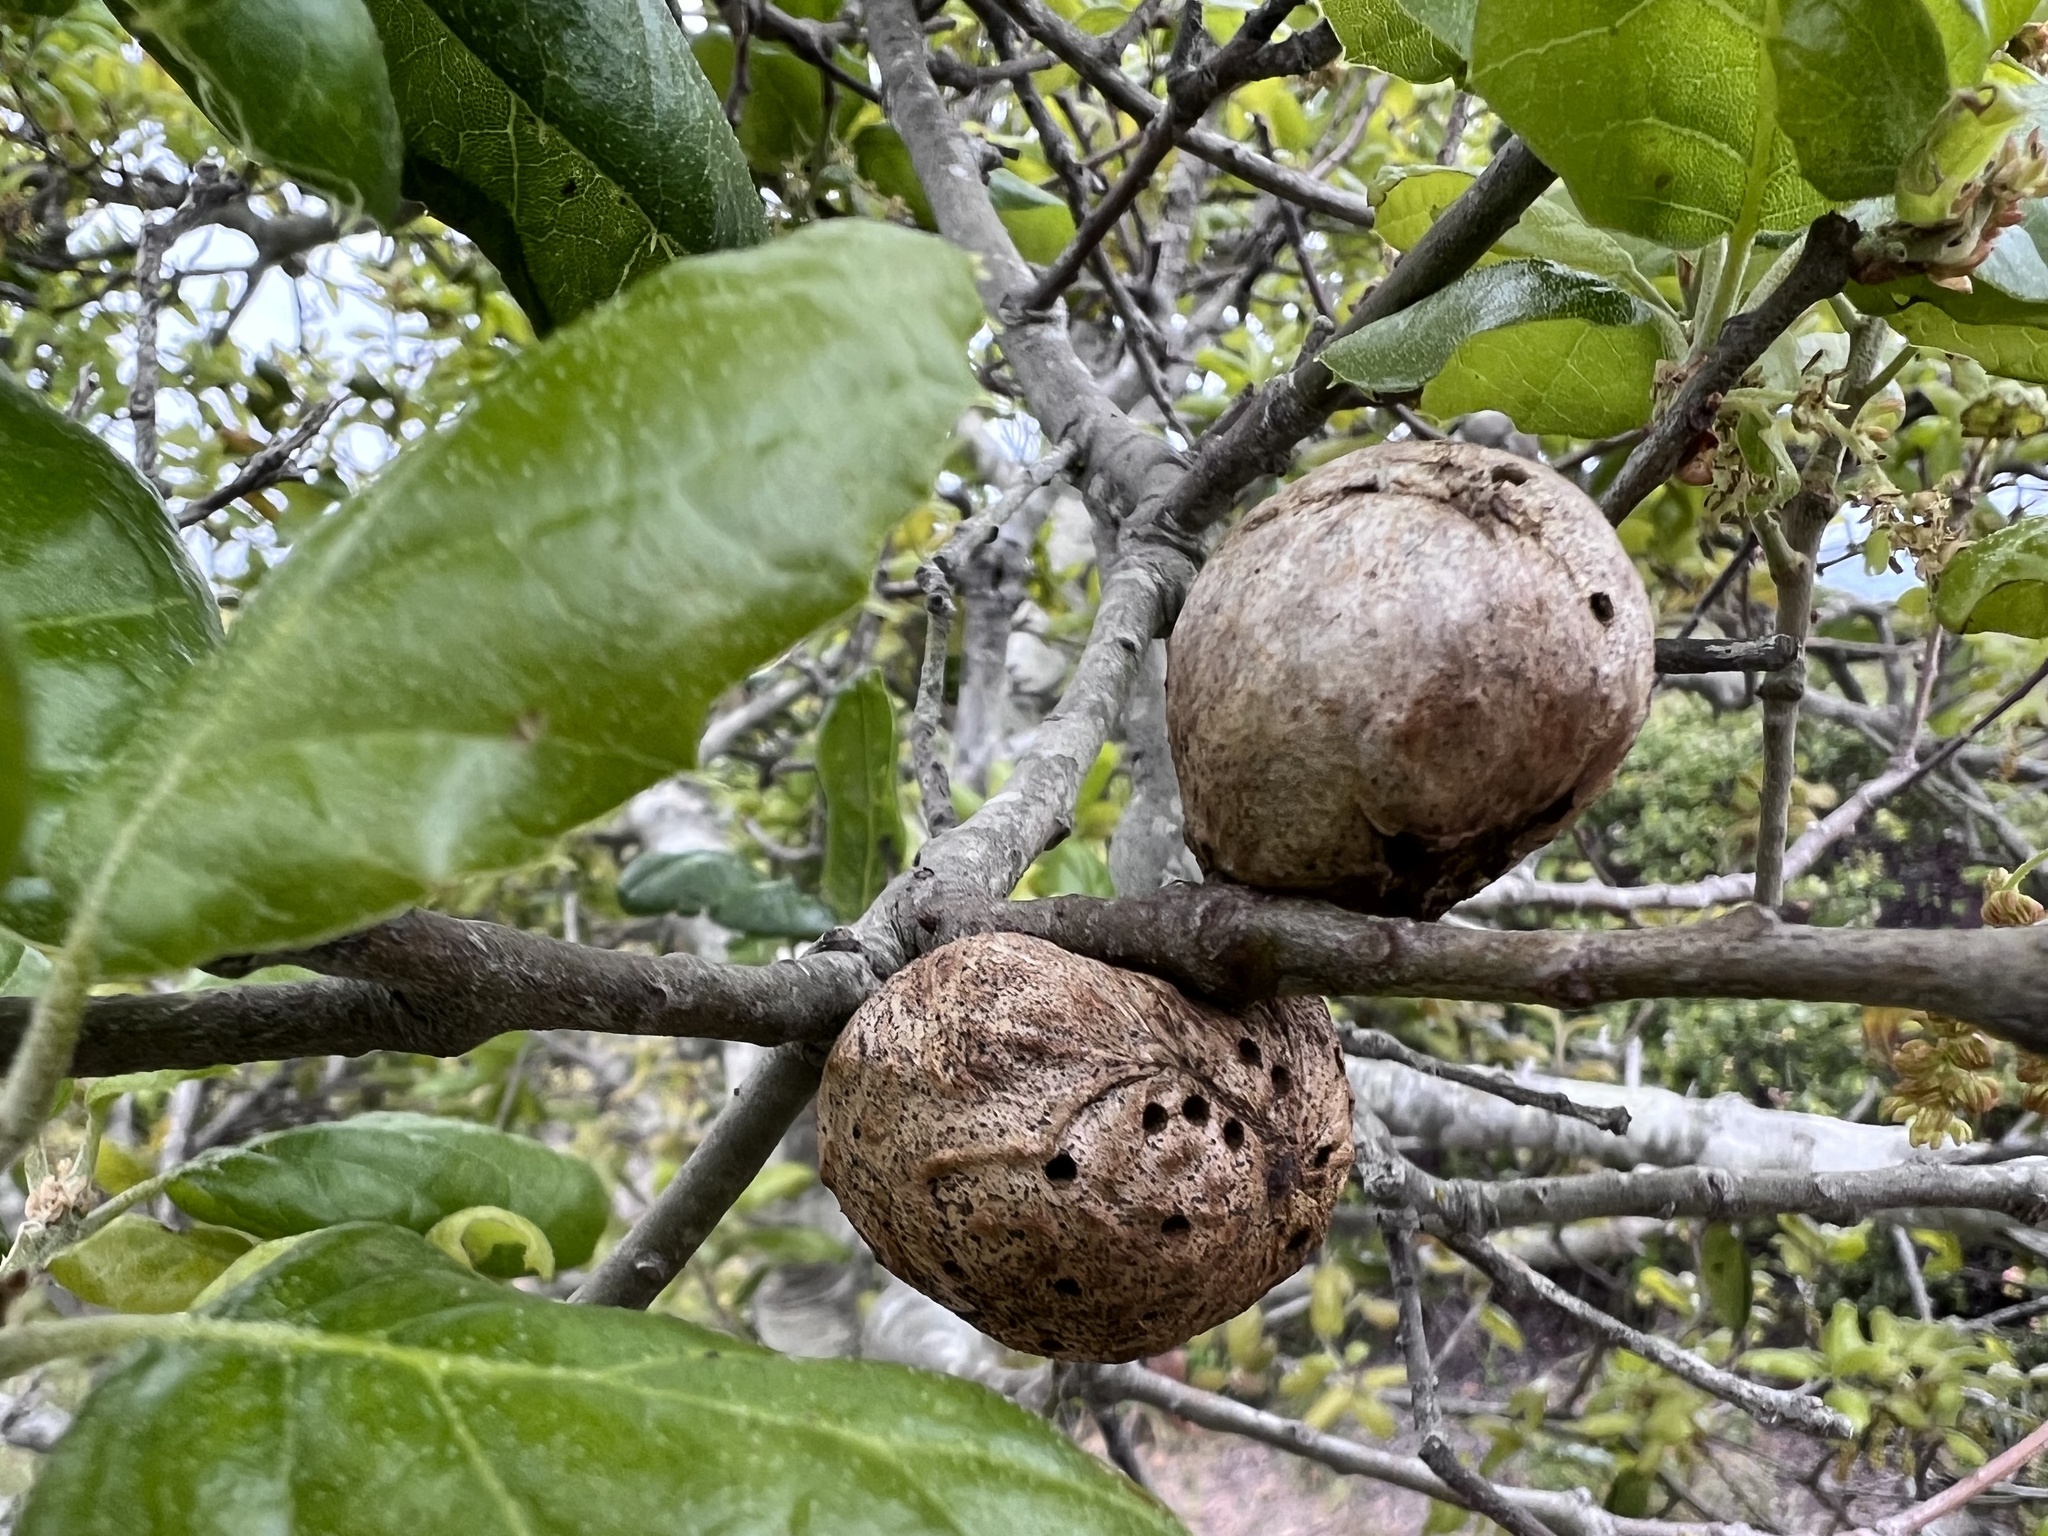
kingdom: Animalia
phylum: Arthropoda
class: Insecta
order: Hymenoptera
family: Cynipidae
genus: Amphibolips
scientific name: Amphibolips quercuspomiformis
